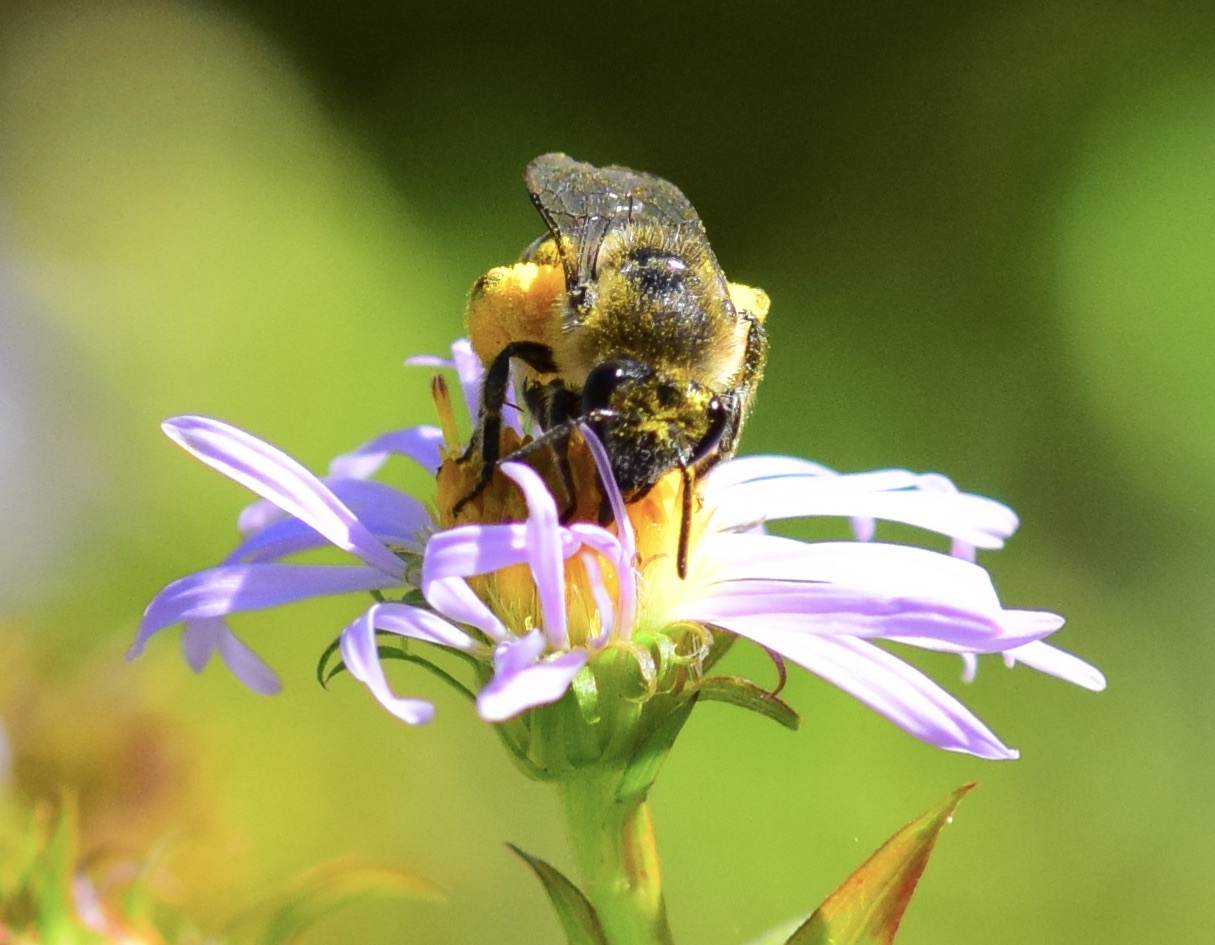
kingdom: Animalia
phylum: Arthropoda
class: Insecta
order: Hymenoptera
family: Colletidae
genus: Colletes
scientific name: Colletes compactus
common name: Aster cellophane bee
